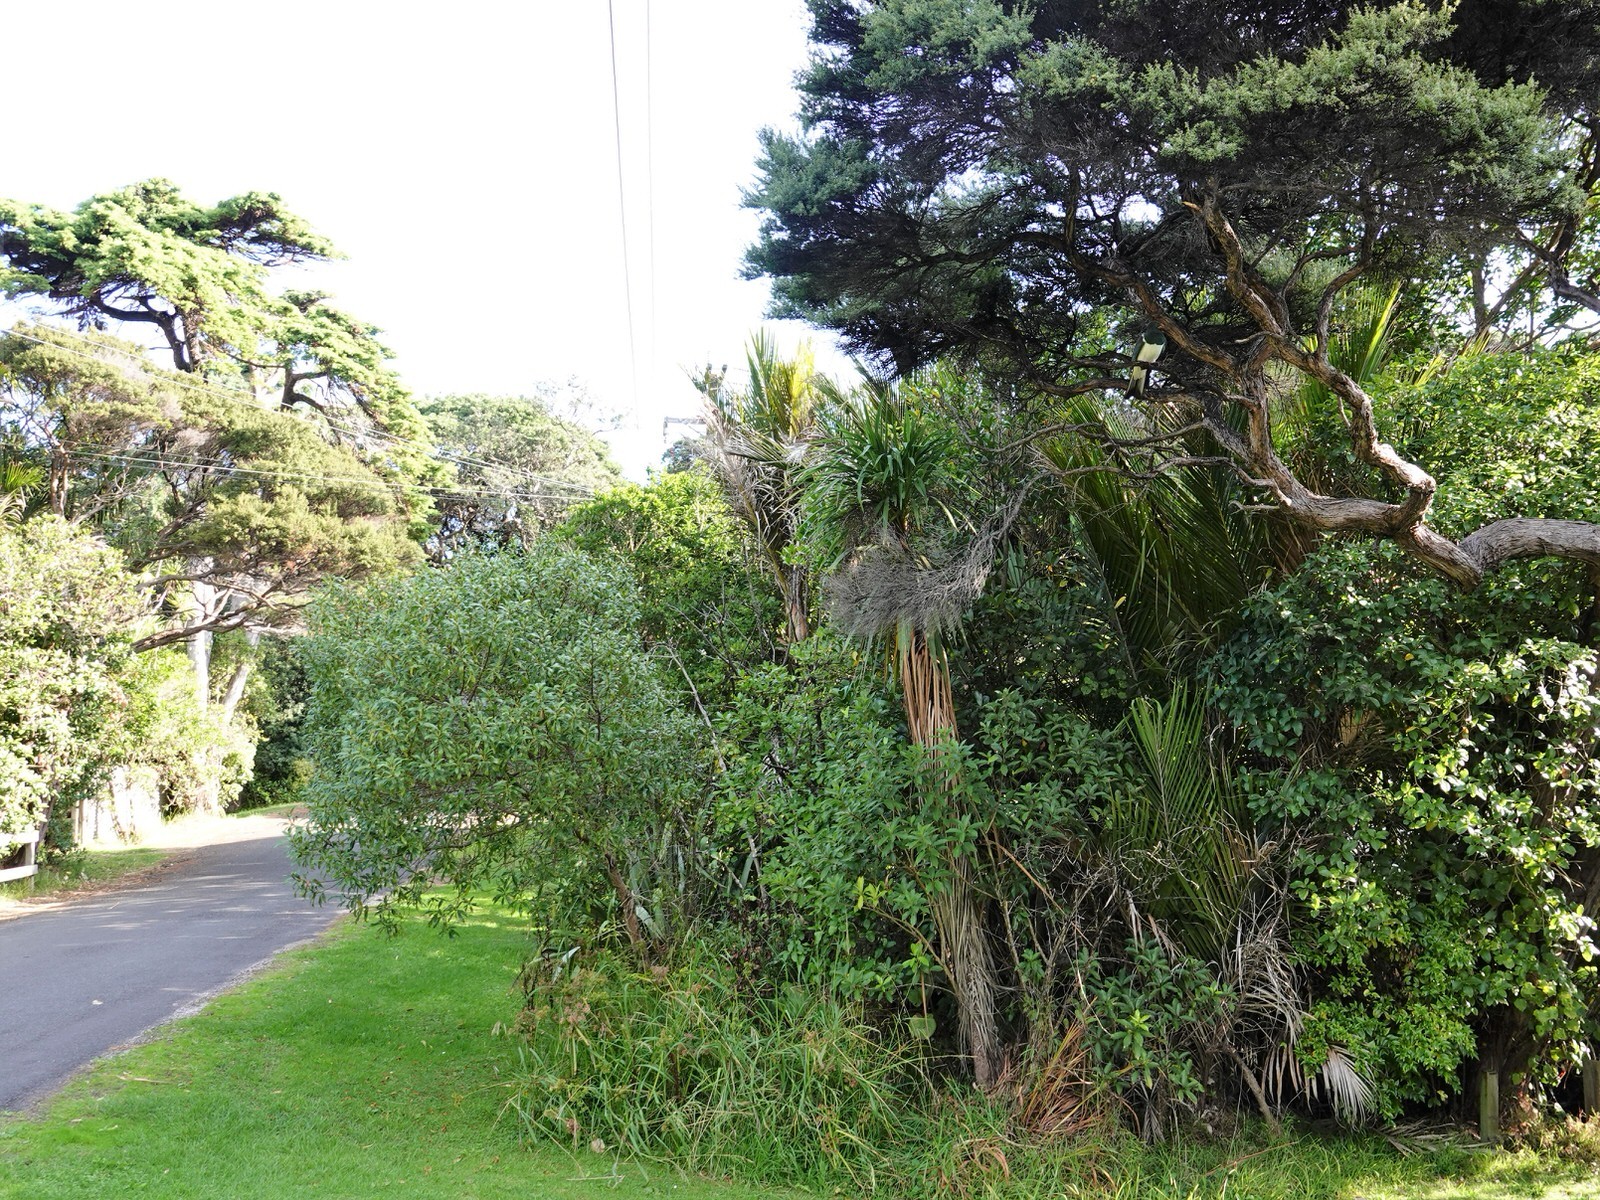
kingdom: Animalia
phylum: Chordata
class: Aves
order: Columbiformes
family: Columbidae
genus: Hemiphaga
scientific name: Hemiphaga novaeseelandiae
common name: New zealand pigeon
